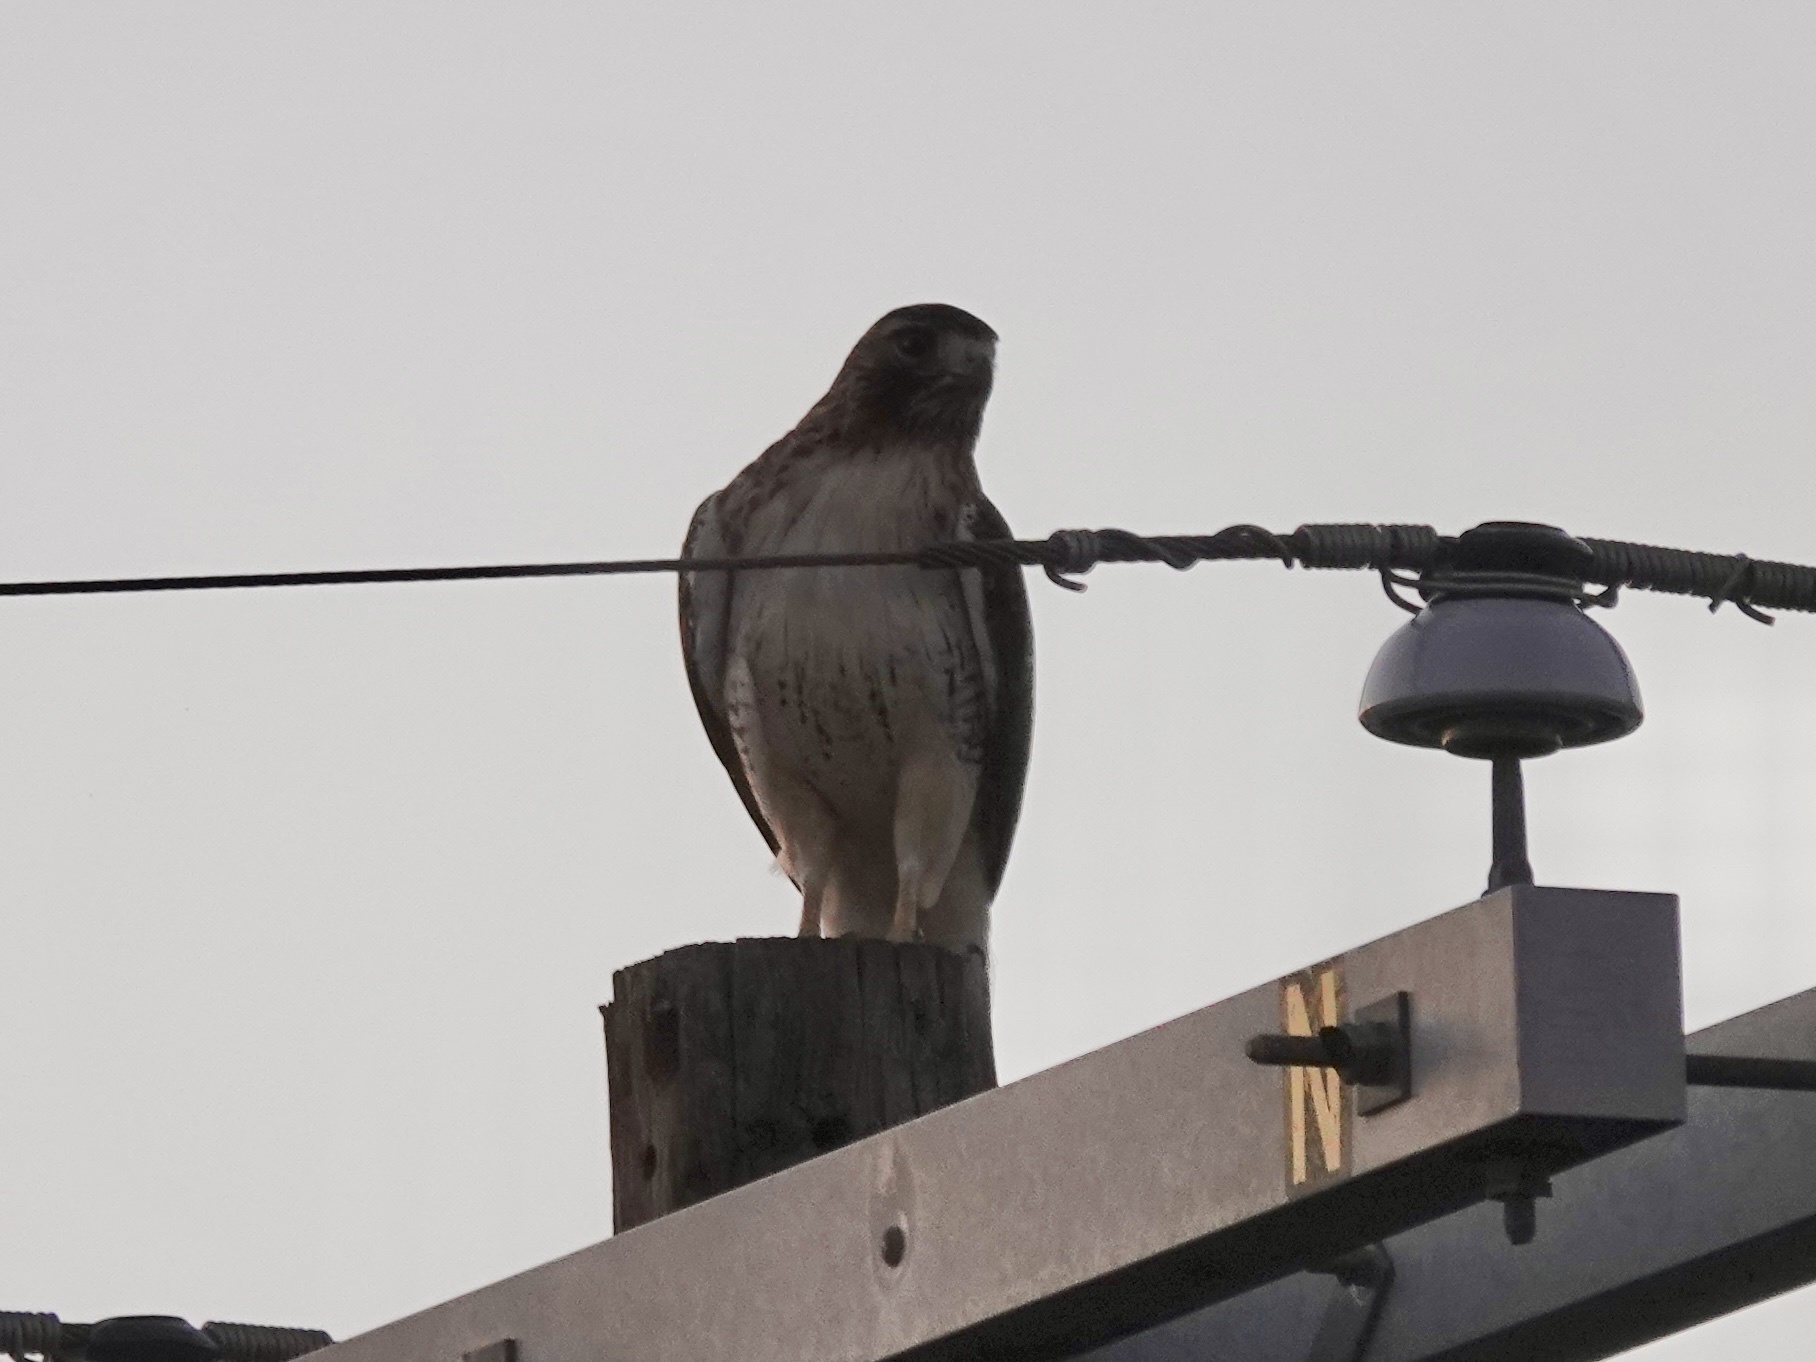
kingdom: Animalia
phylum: Chordata
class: Aves
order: Accipitriformes
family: Accipitridae
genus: Buteo
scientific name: Buteo jamaicensis
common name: Red-tailed hawk
